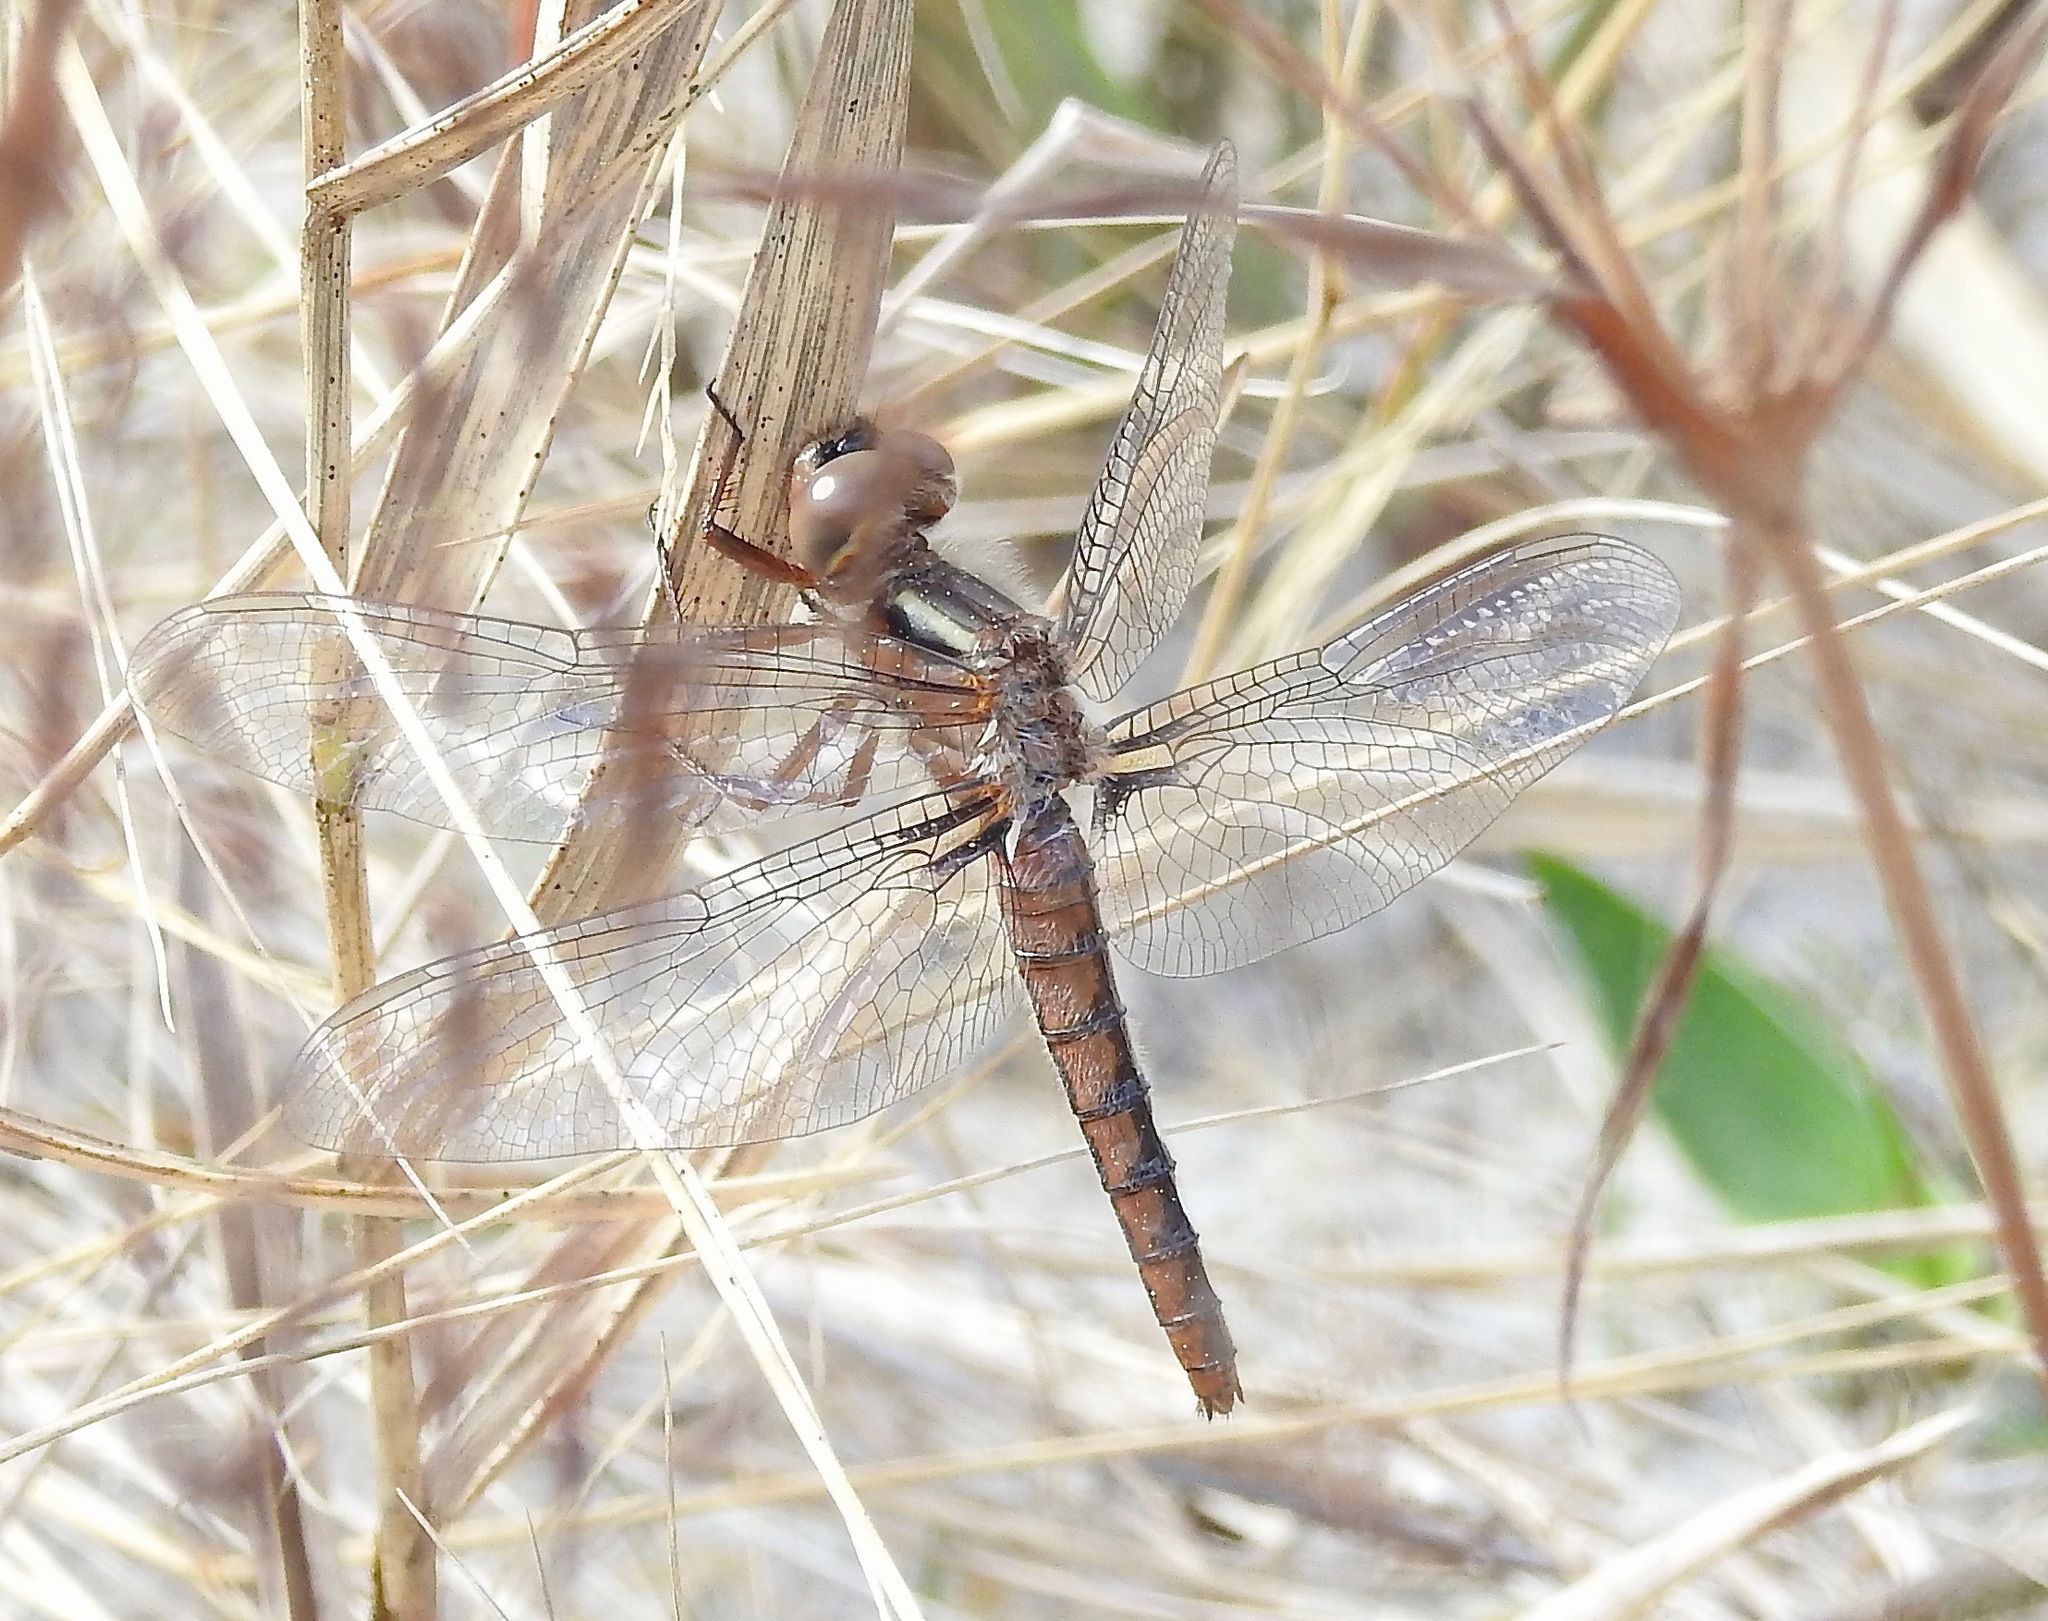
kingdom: Animalia
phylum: Arthropoda
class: Insecta
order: Odonata
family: Libellulidae
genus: Ladona
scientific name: Ladona deplanata
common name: Blue corporal
